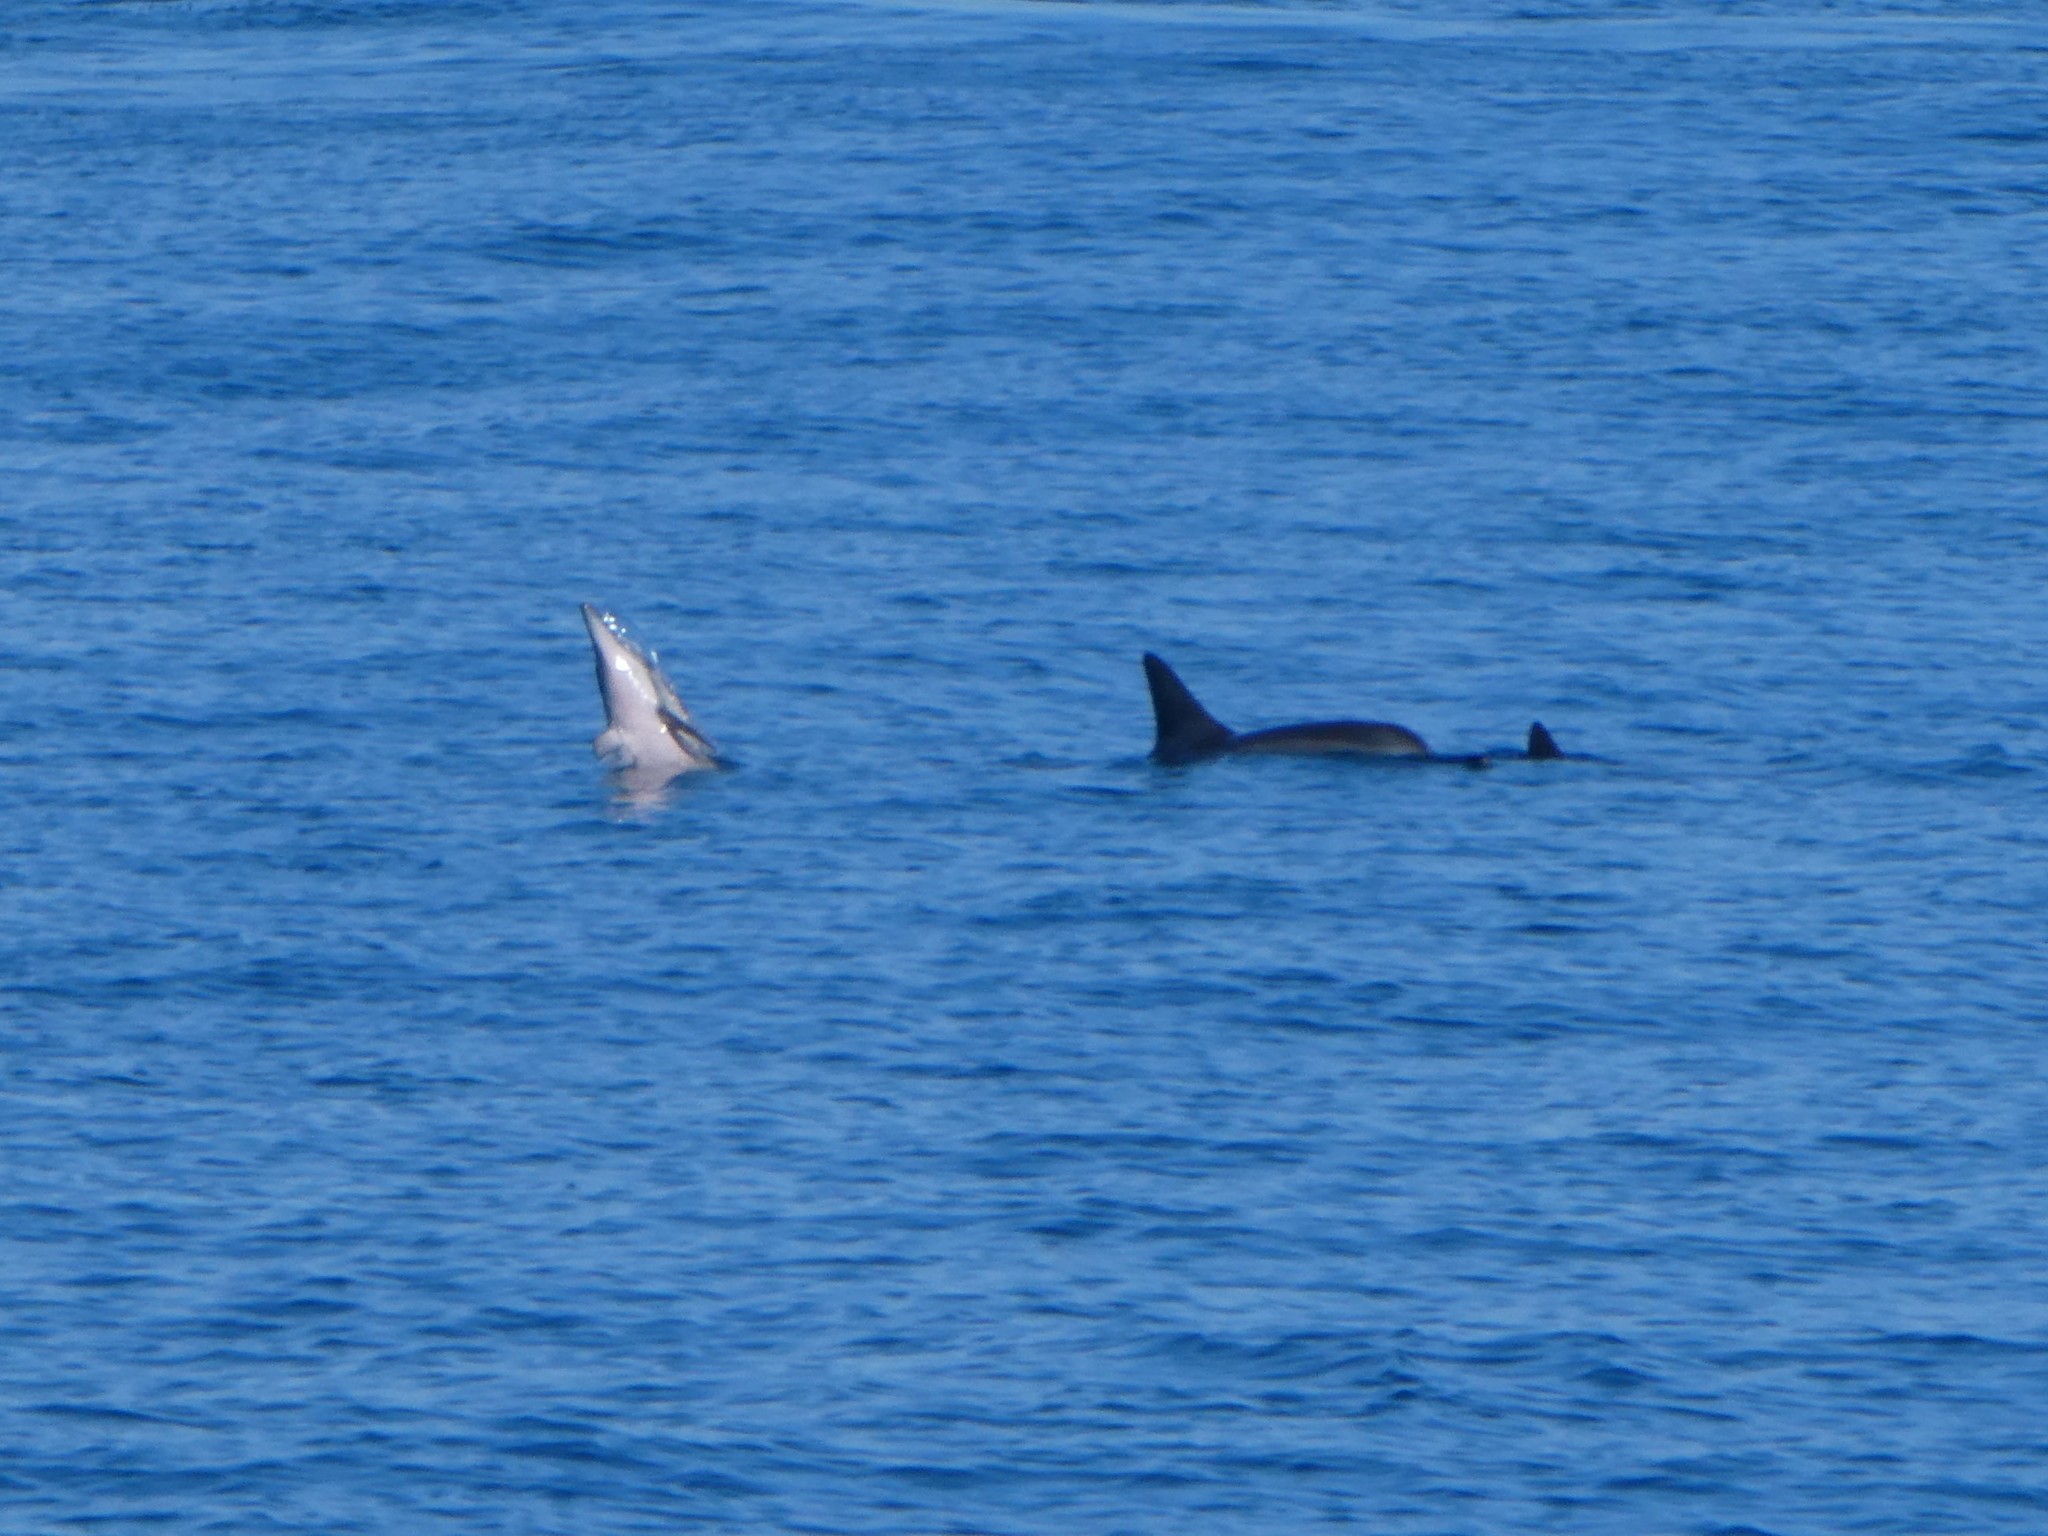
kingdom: Animalia
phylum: Chordata
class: Mammalia
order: Cetacea
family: Delphinidae
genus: Stenella
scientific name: Stenella longirostris
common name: Spinner dolphin
